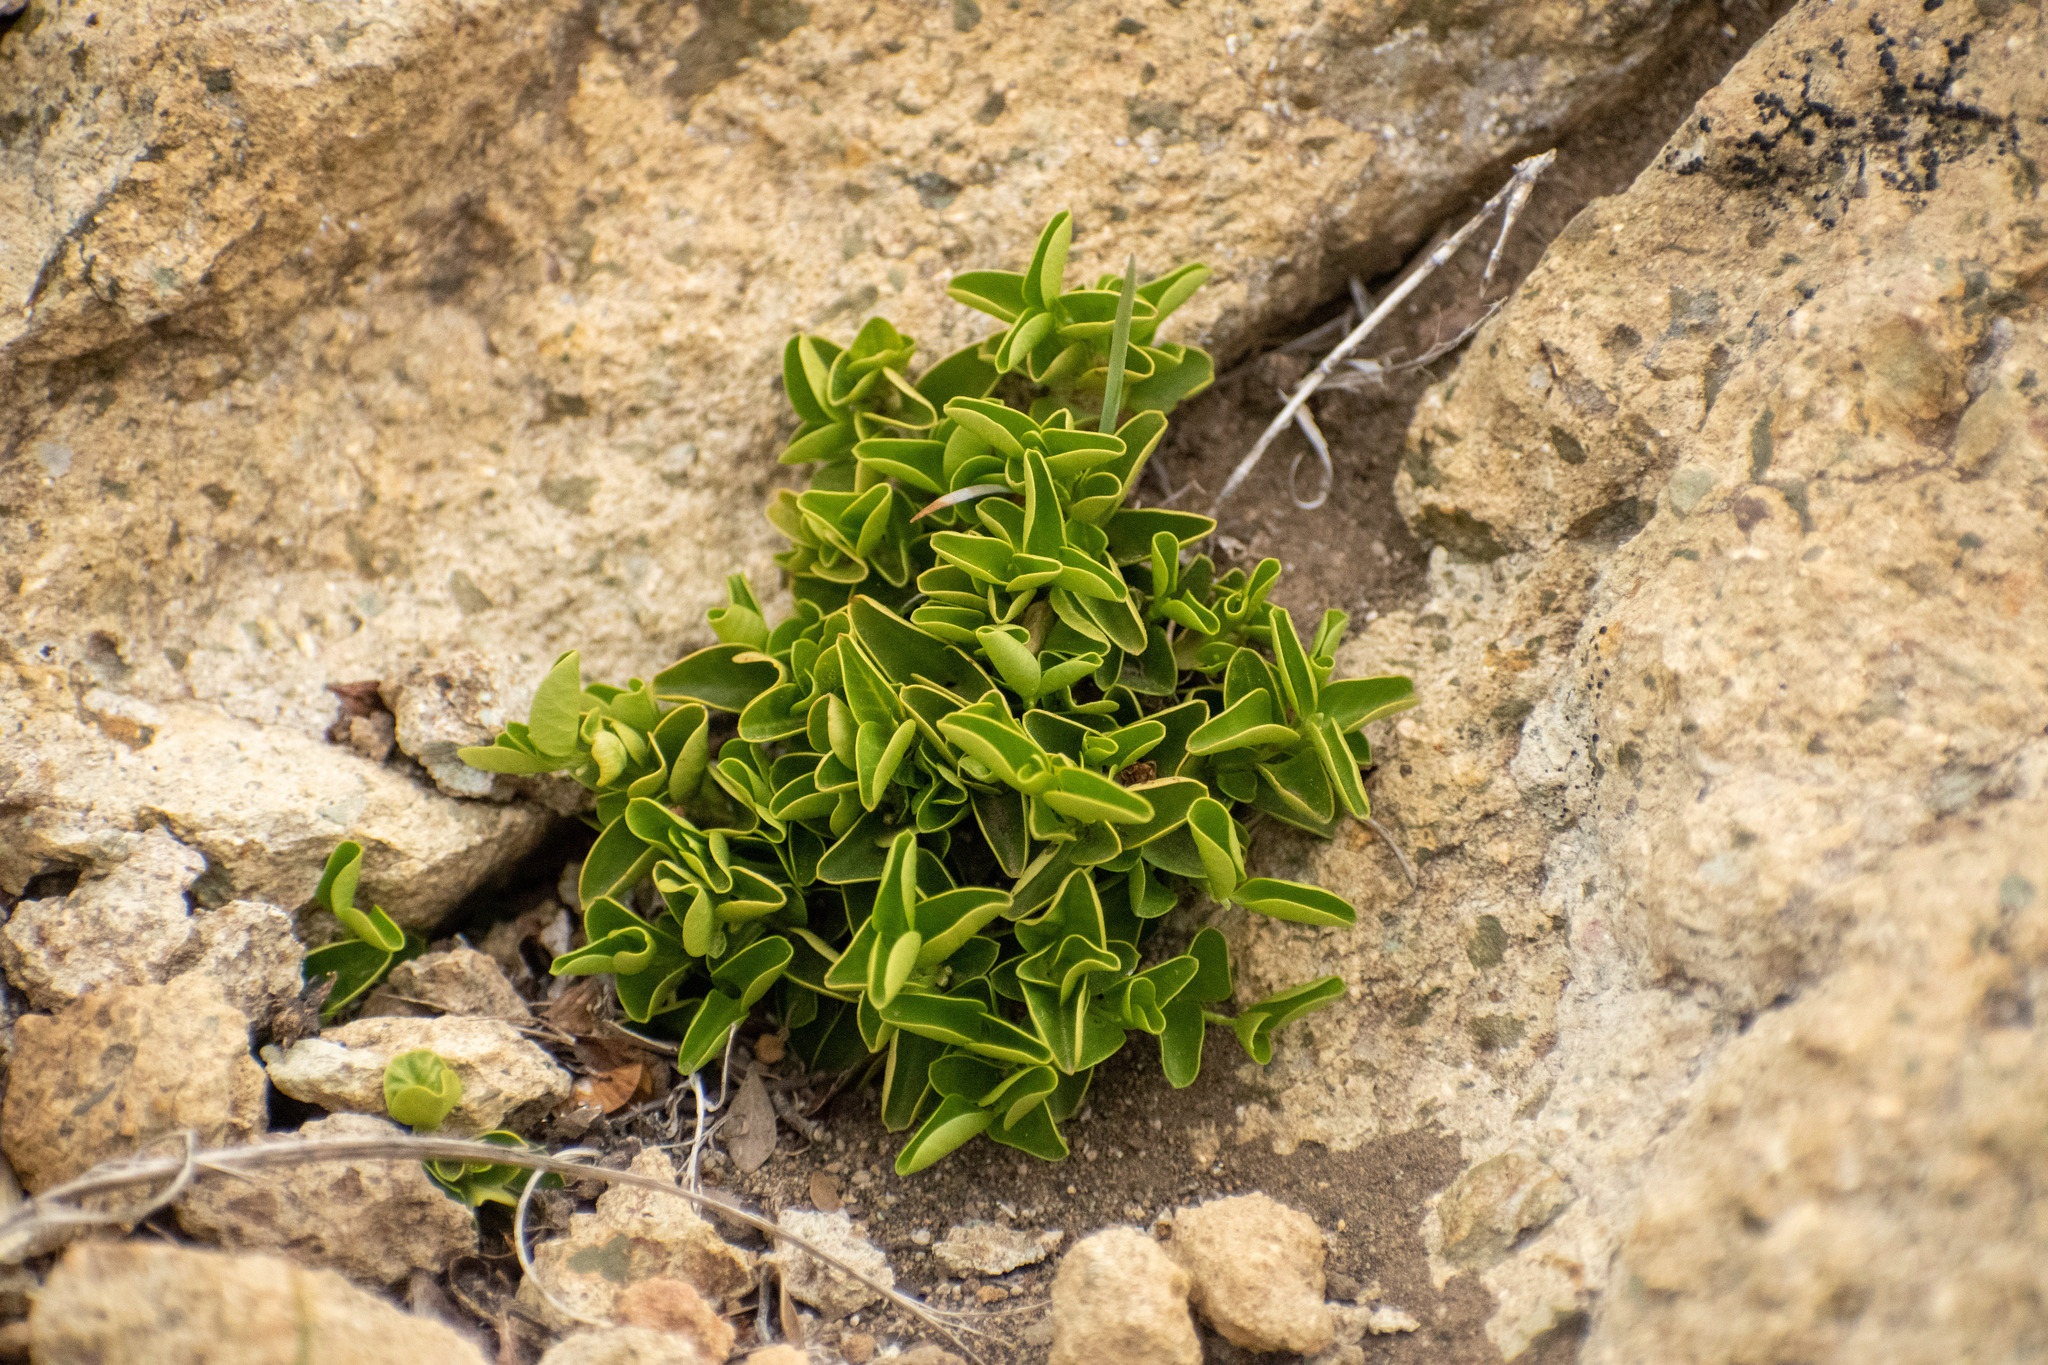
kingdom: Plantae
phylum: Tracheophyta
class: Magnoliopsida
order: Gentianales
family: Apocynaceae
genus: Diplolepis
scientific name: Diplolepis biflora
